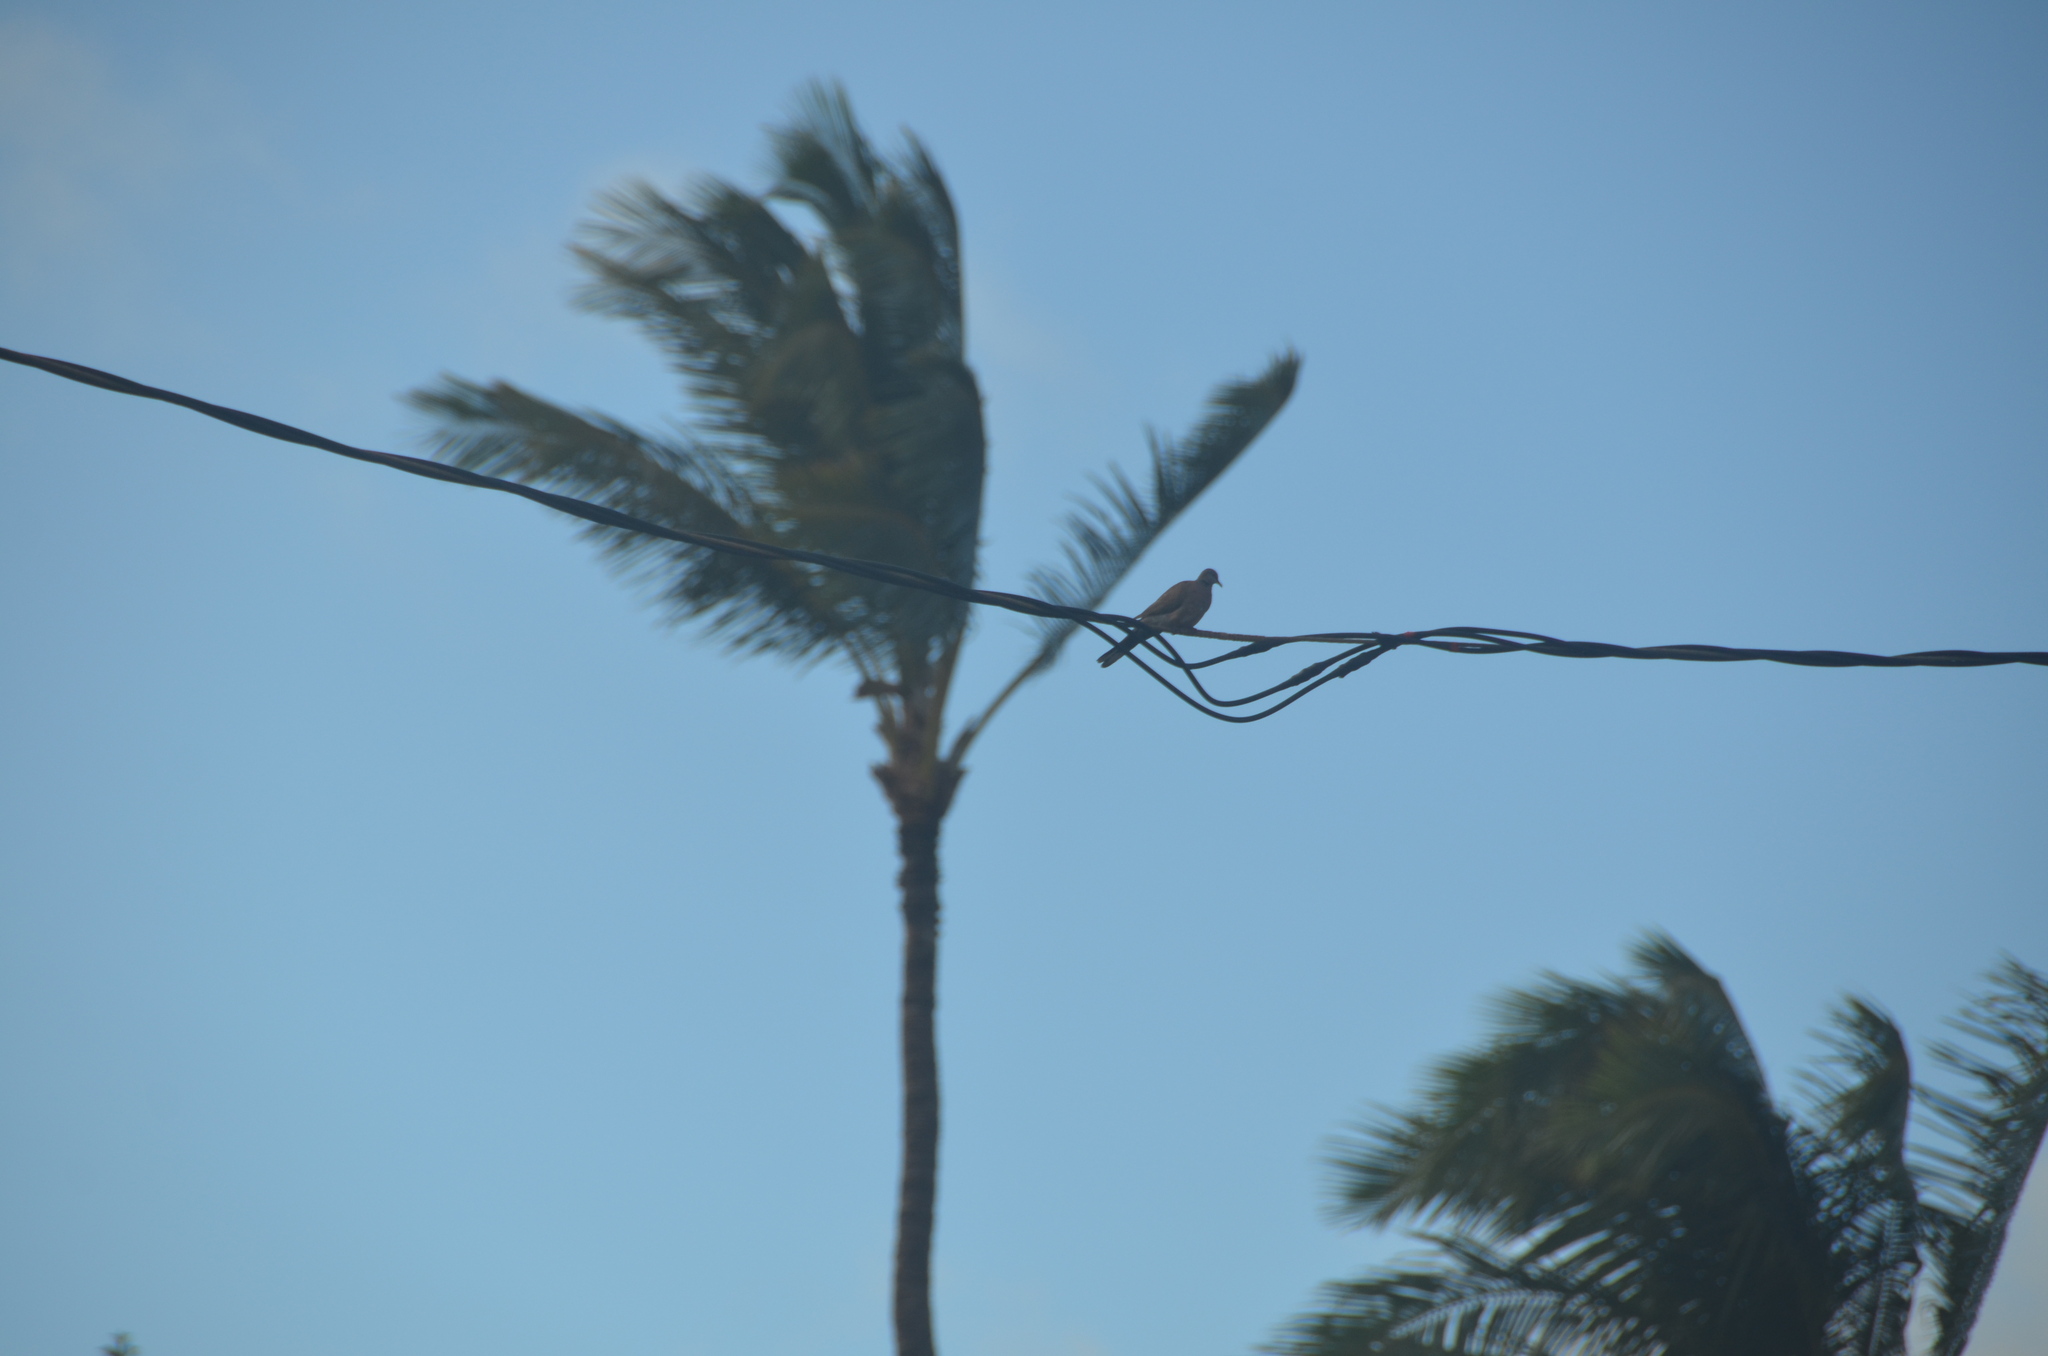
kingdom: Animalia
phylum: Chordata
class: Aves
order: Columbiformes
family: Columbidae
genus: Spilopelia
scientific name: Spilopelia chinensis
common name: Spotted dove
